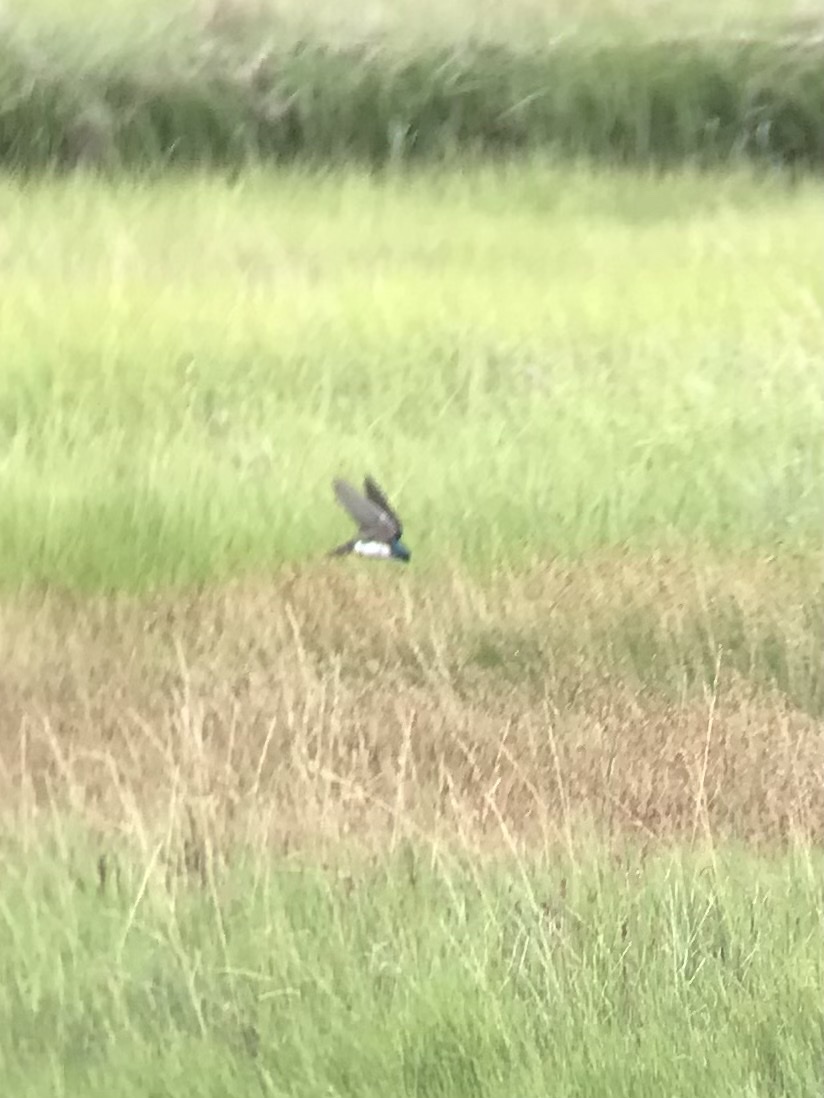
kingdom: Animalia
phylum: Chordata
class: Aves
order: Passeriformes
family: Hirundinidae
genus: Tachycineta
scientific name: Tachycineta bicolor
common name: Tree swallow
